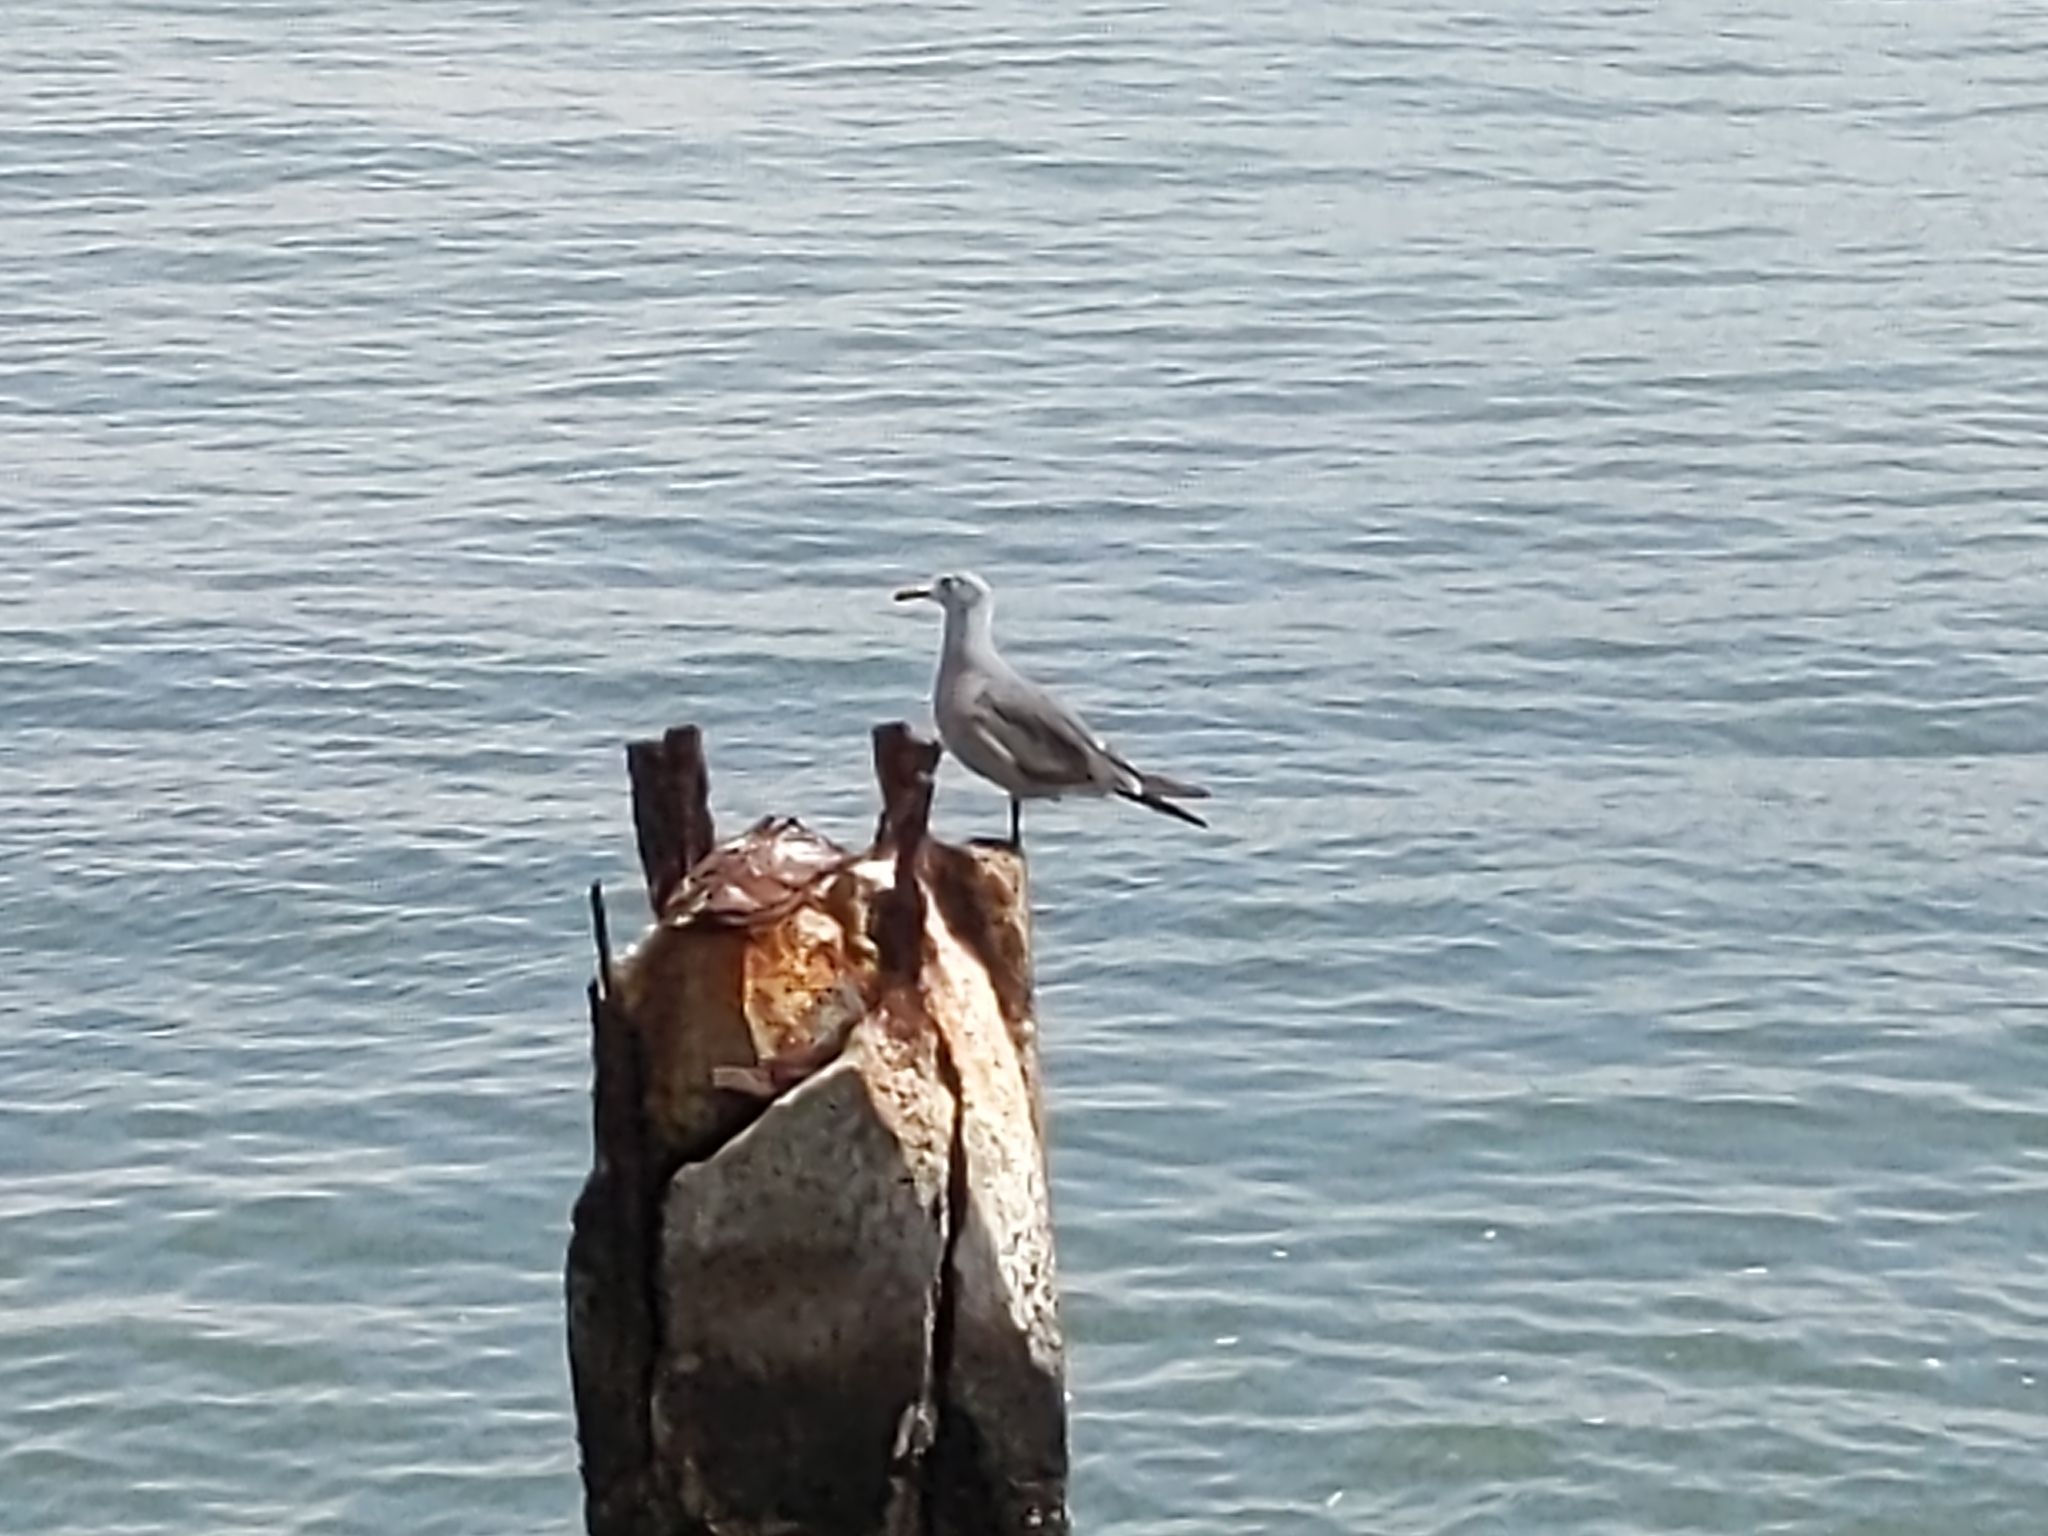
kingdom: Animalia
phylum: Chordata
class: Aves
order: Charadriiformes
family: Laridae
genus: Larus
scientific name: Larus heermanni
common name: Heermann's gull
